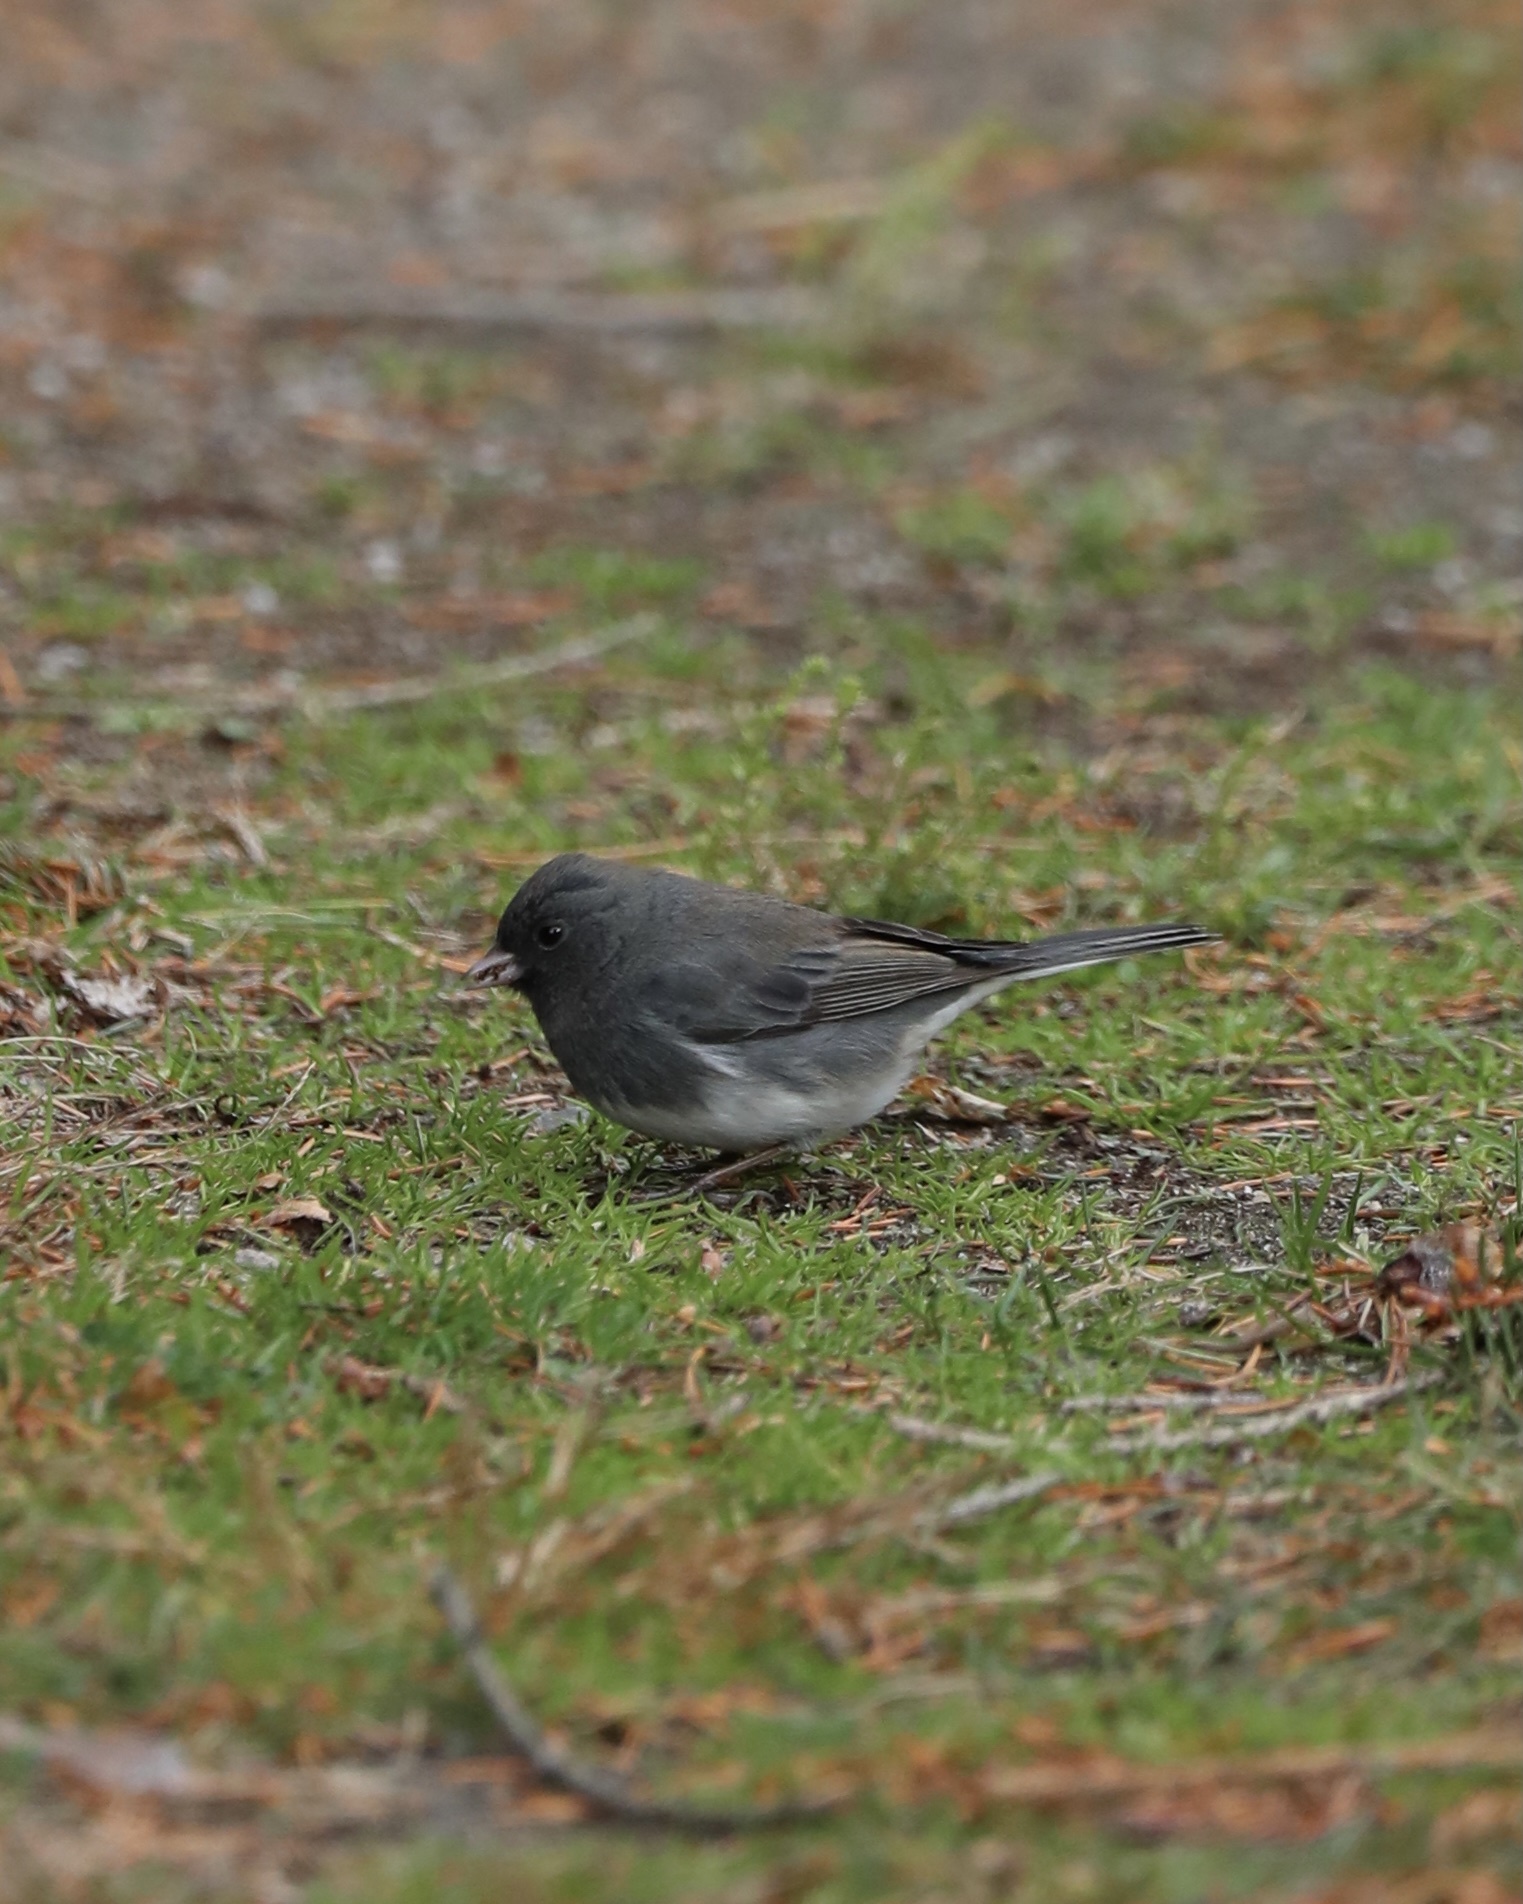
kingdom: Animalia
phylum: Chordata
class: Aves
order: Passeriformes
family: Passerellidae
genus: Junco
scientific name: Junco hyemalis
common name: Dark-eyed junco
